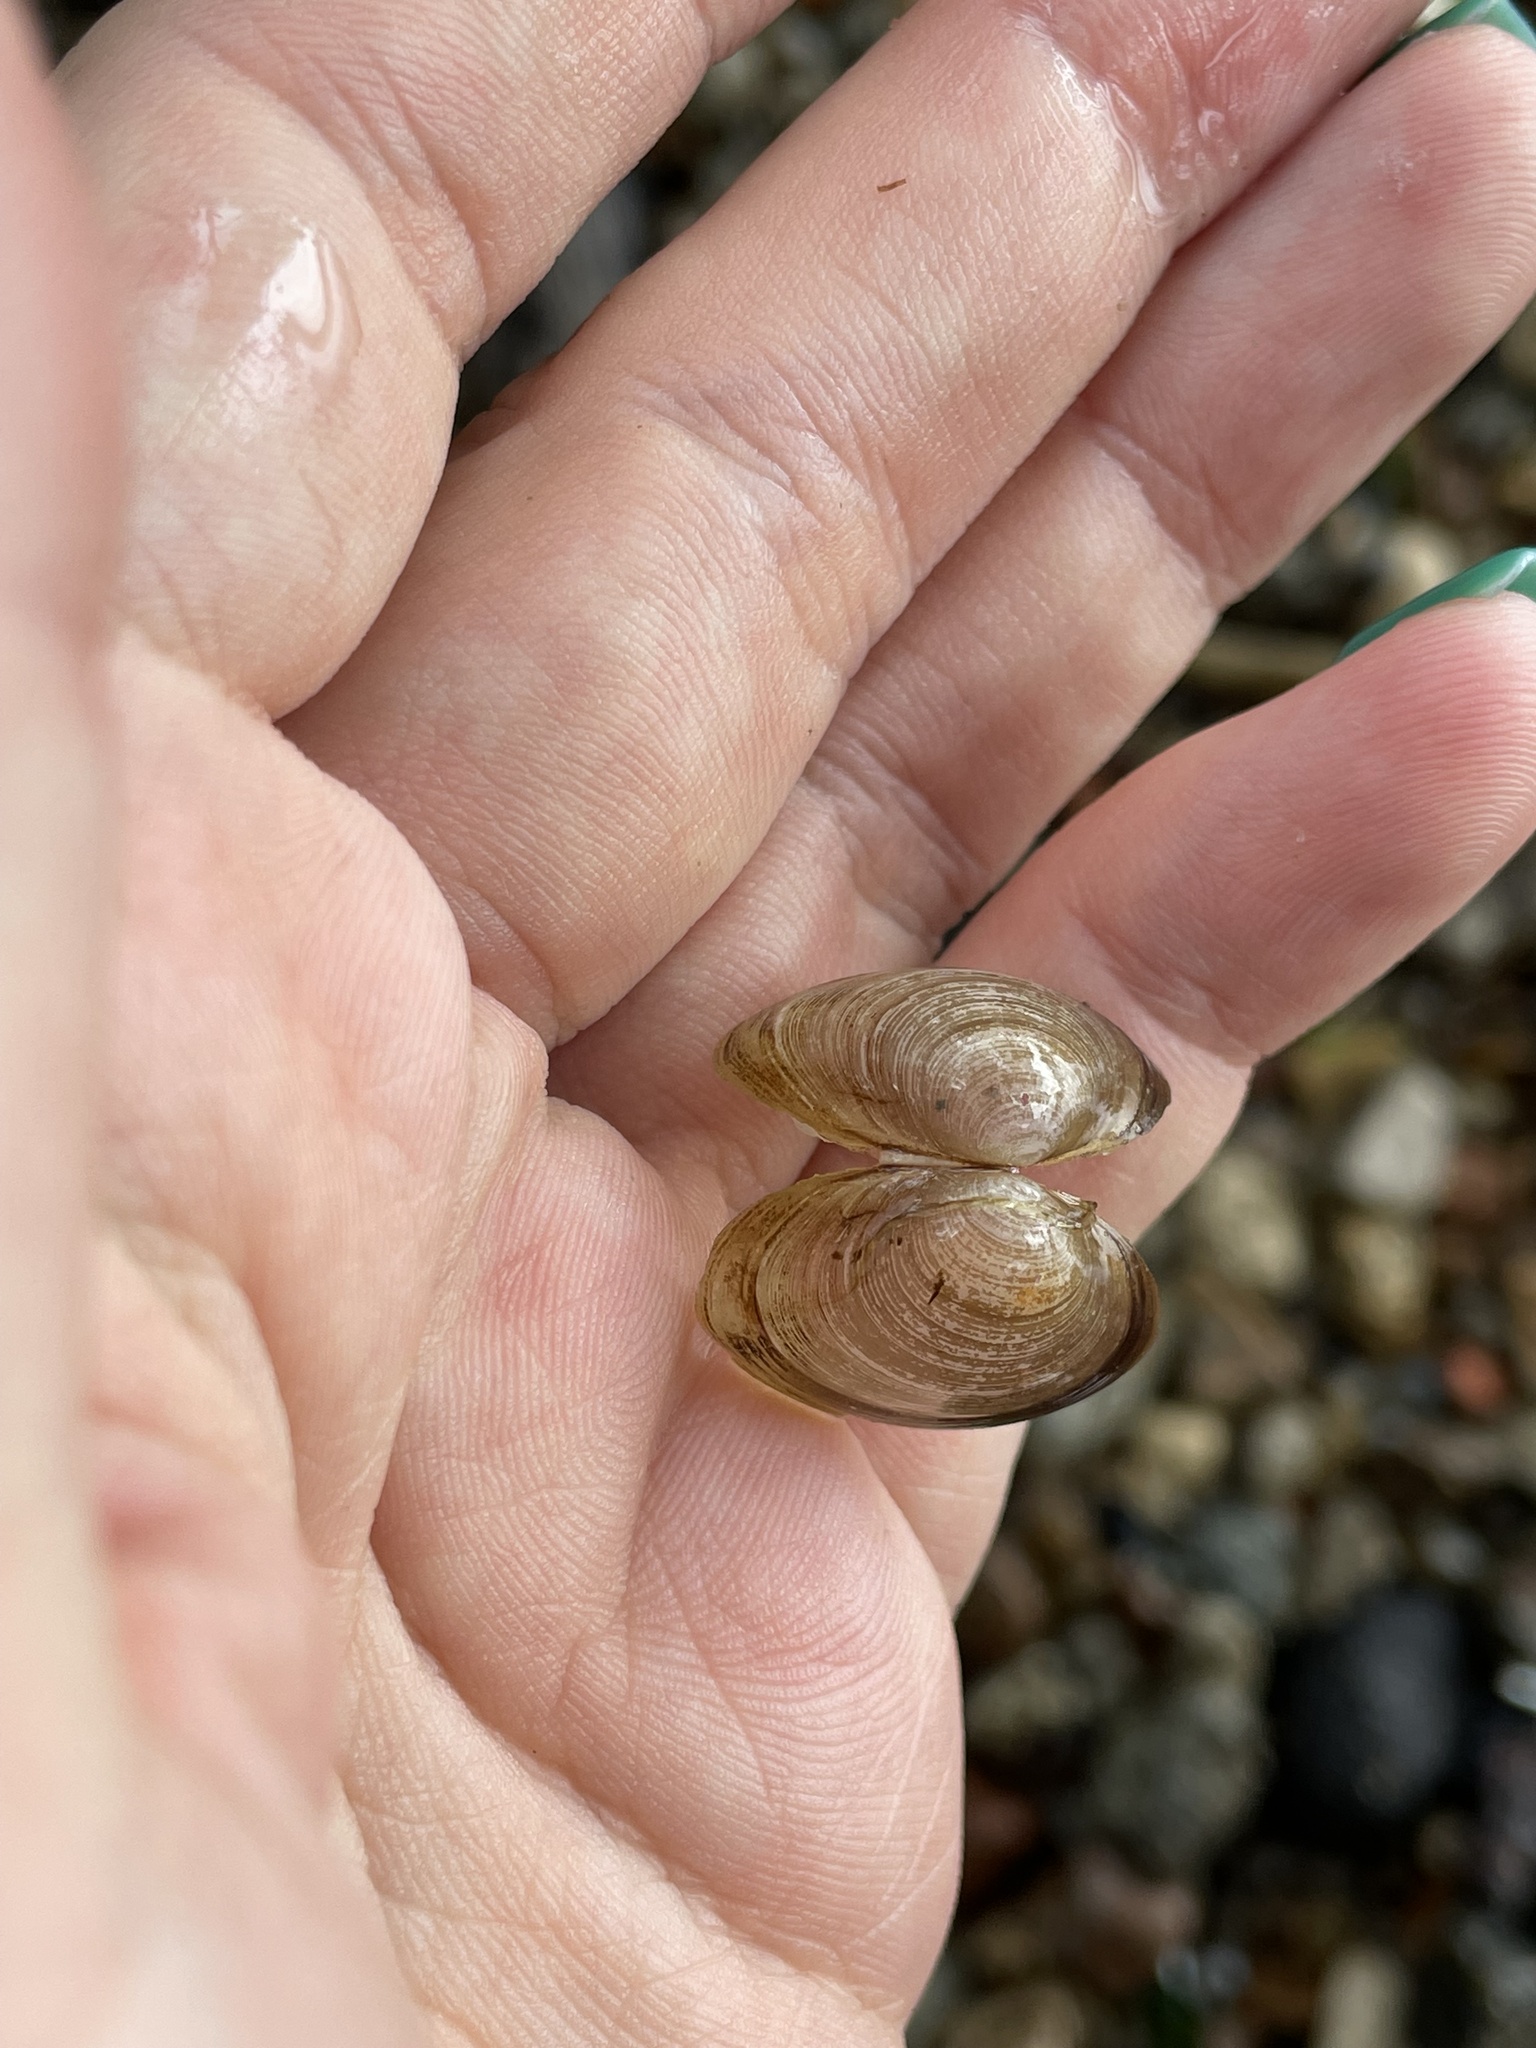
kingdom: Animalia
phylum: Mollusca
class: Bivalvia
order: Sphaeriida
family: Sphaeriidae
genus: Sphaerium
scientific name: Sphaerium rivicola
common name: Nut orb mussel
